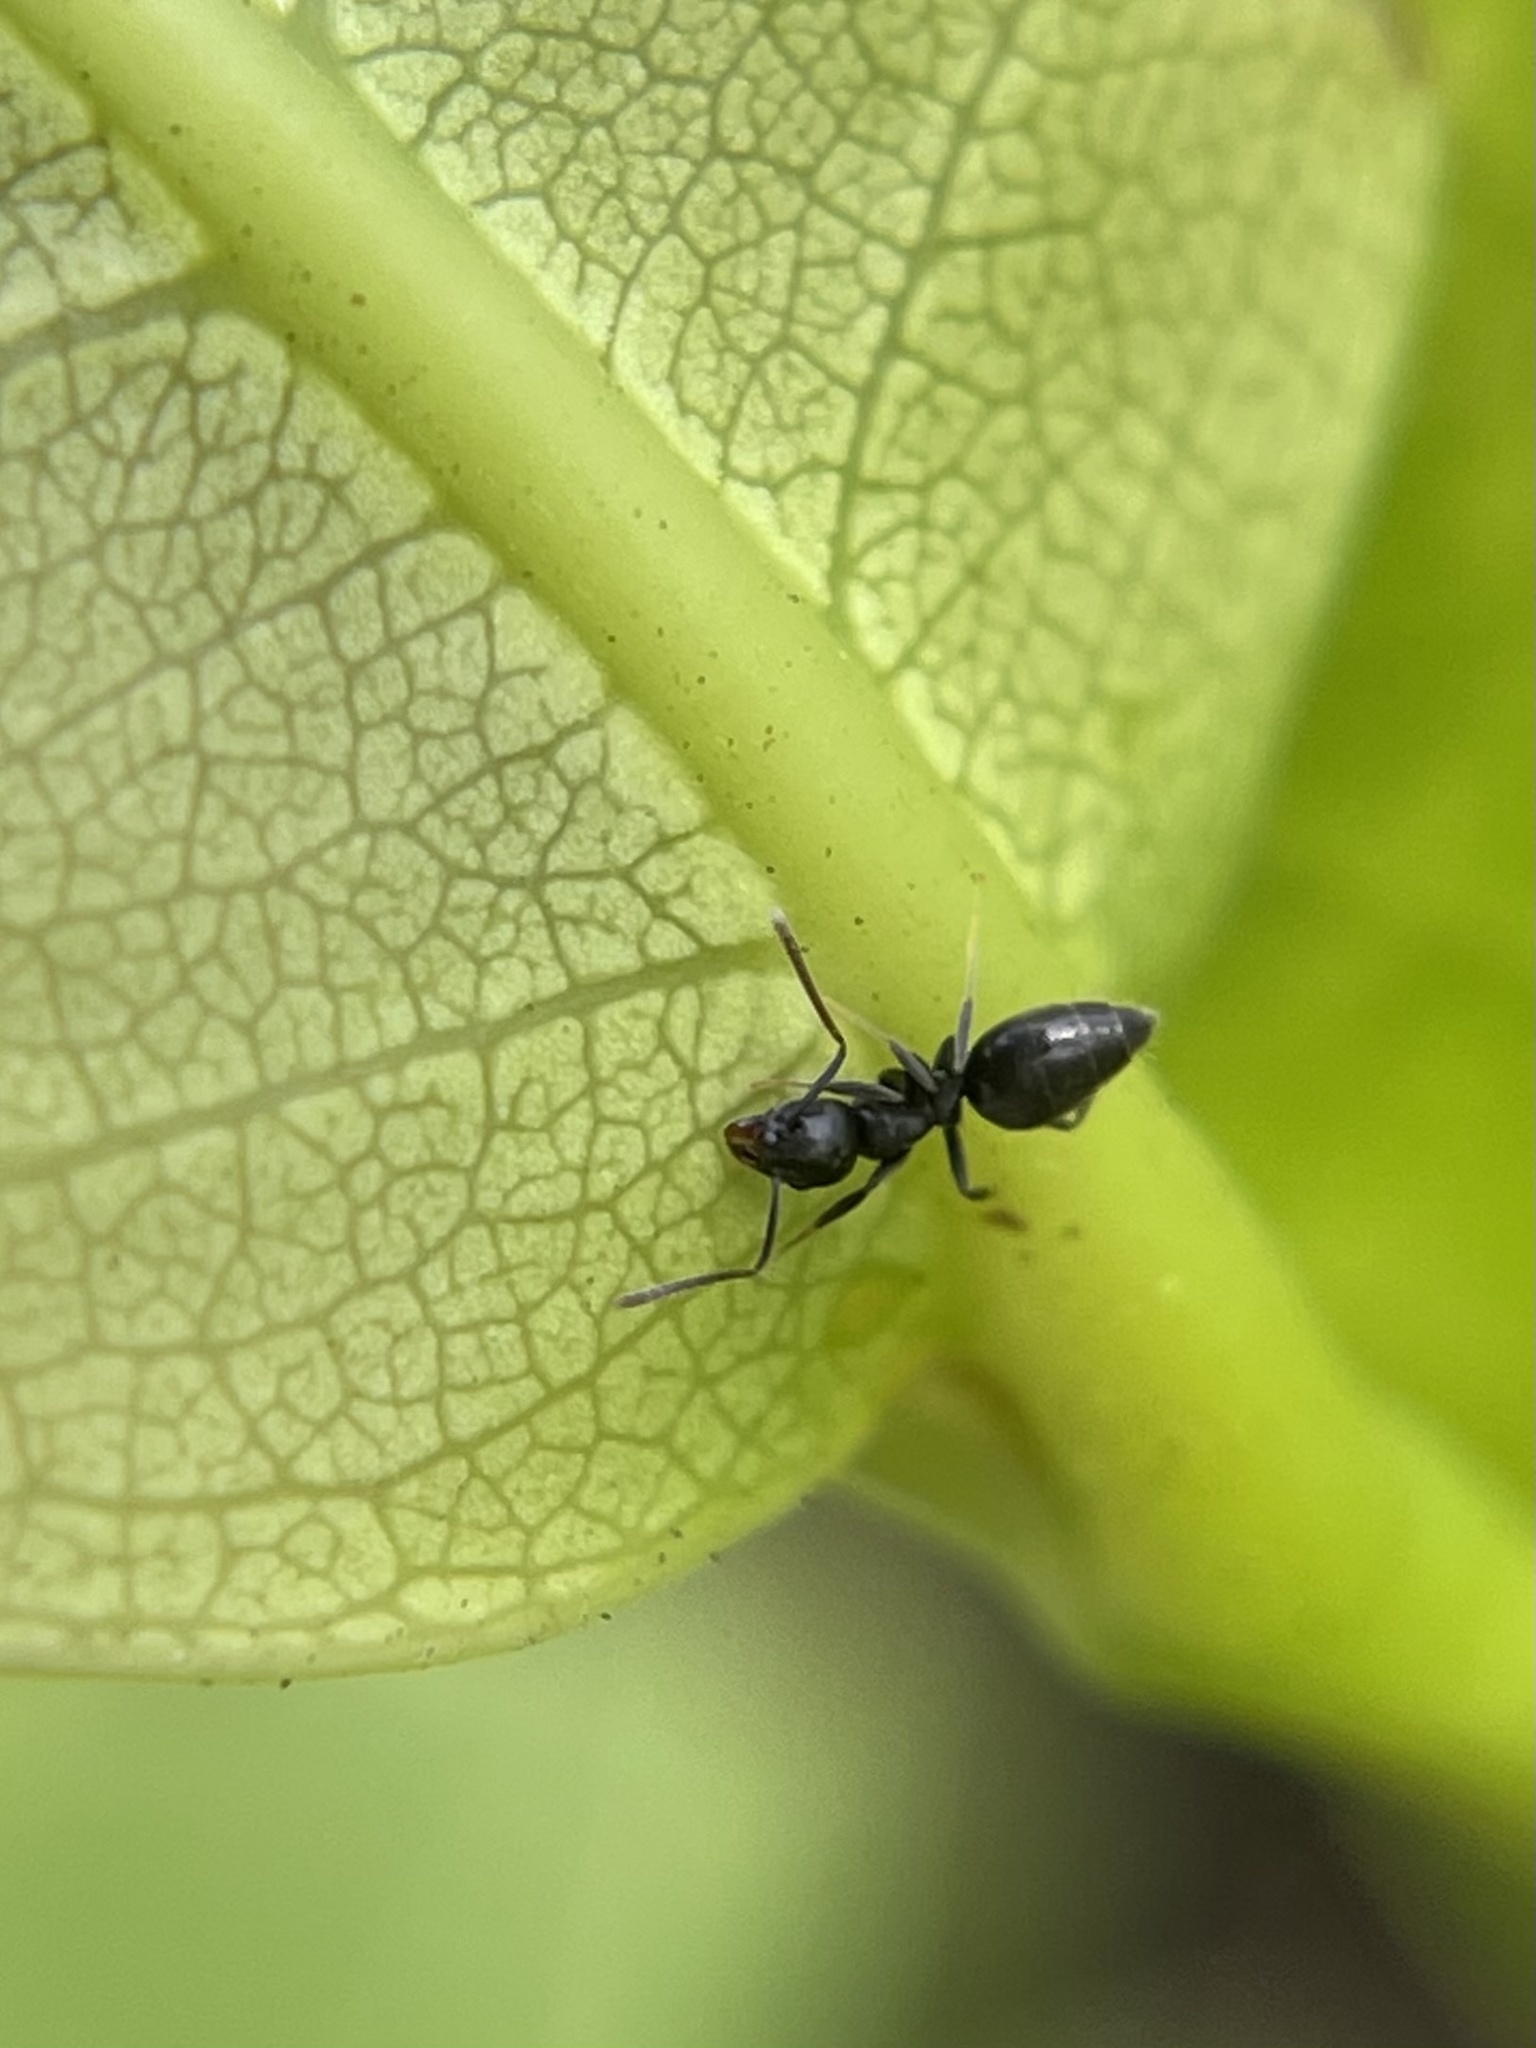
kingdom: Animalia
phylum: Arthropoda
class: Insecta
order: Hymenoptera
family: Formicidae
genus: Technomyrmex
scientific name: Technomyrmex difficilis
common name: Ant
